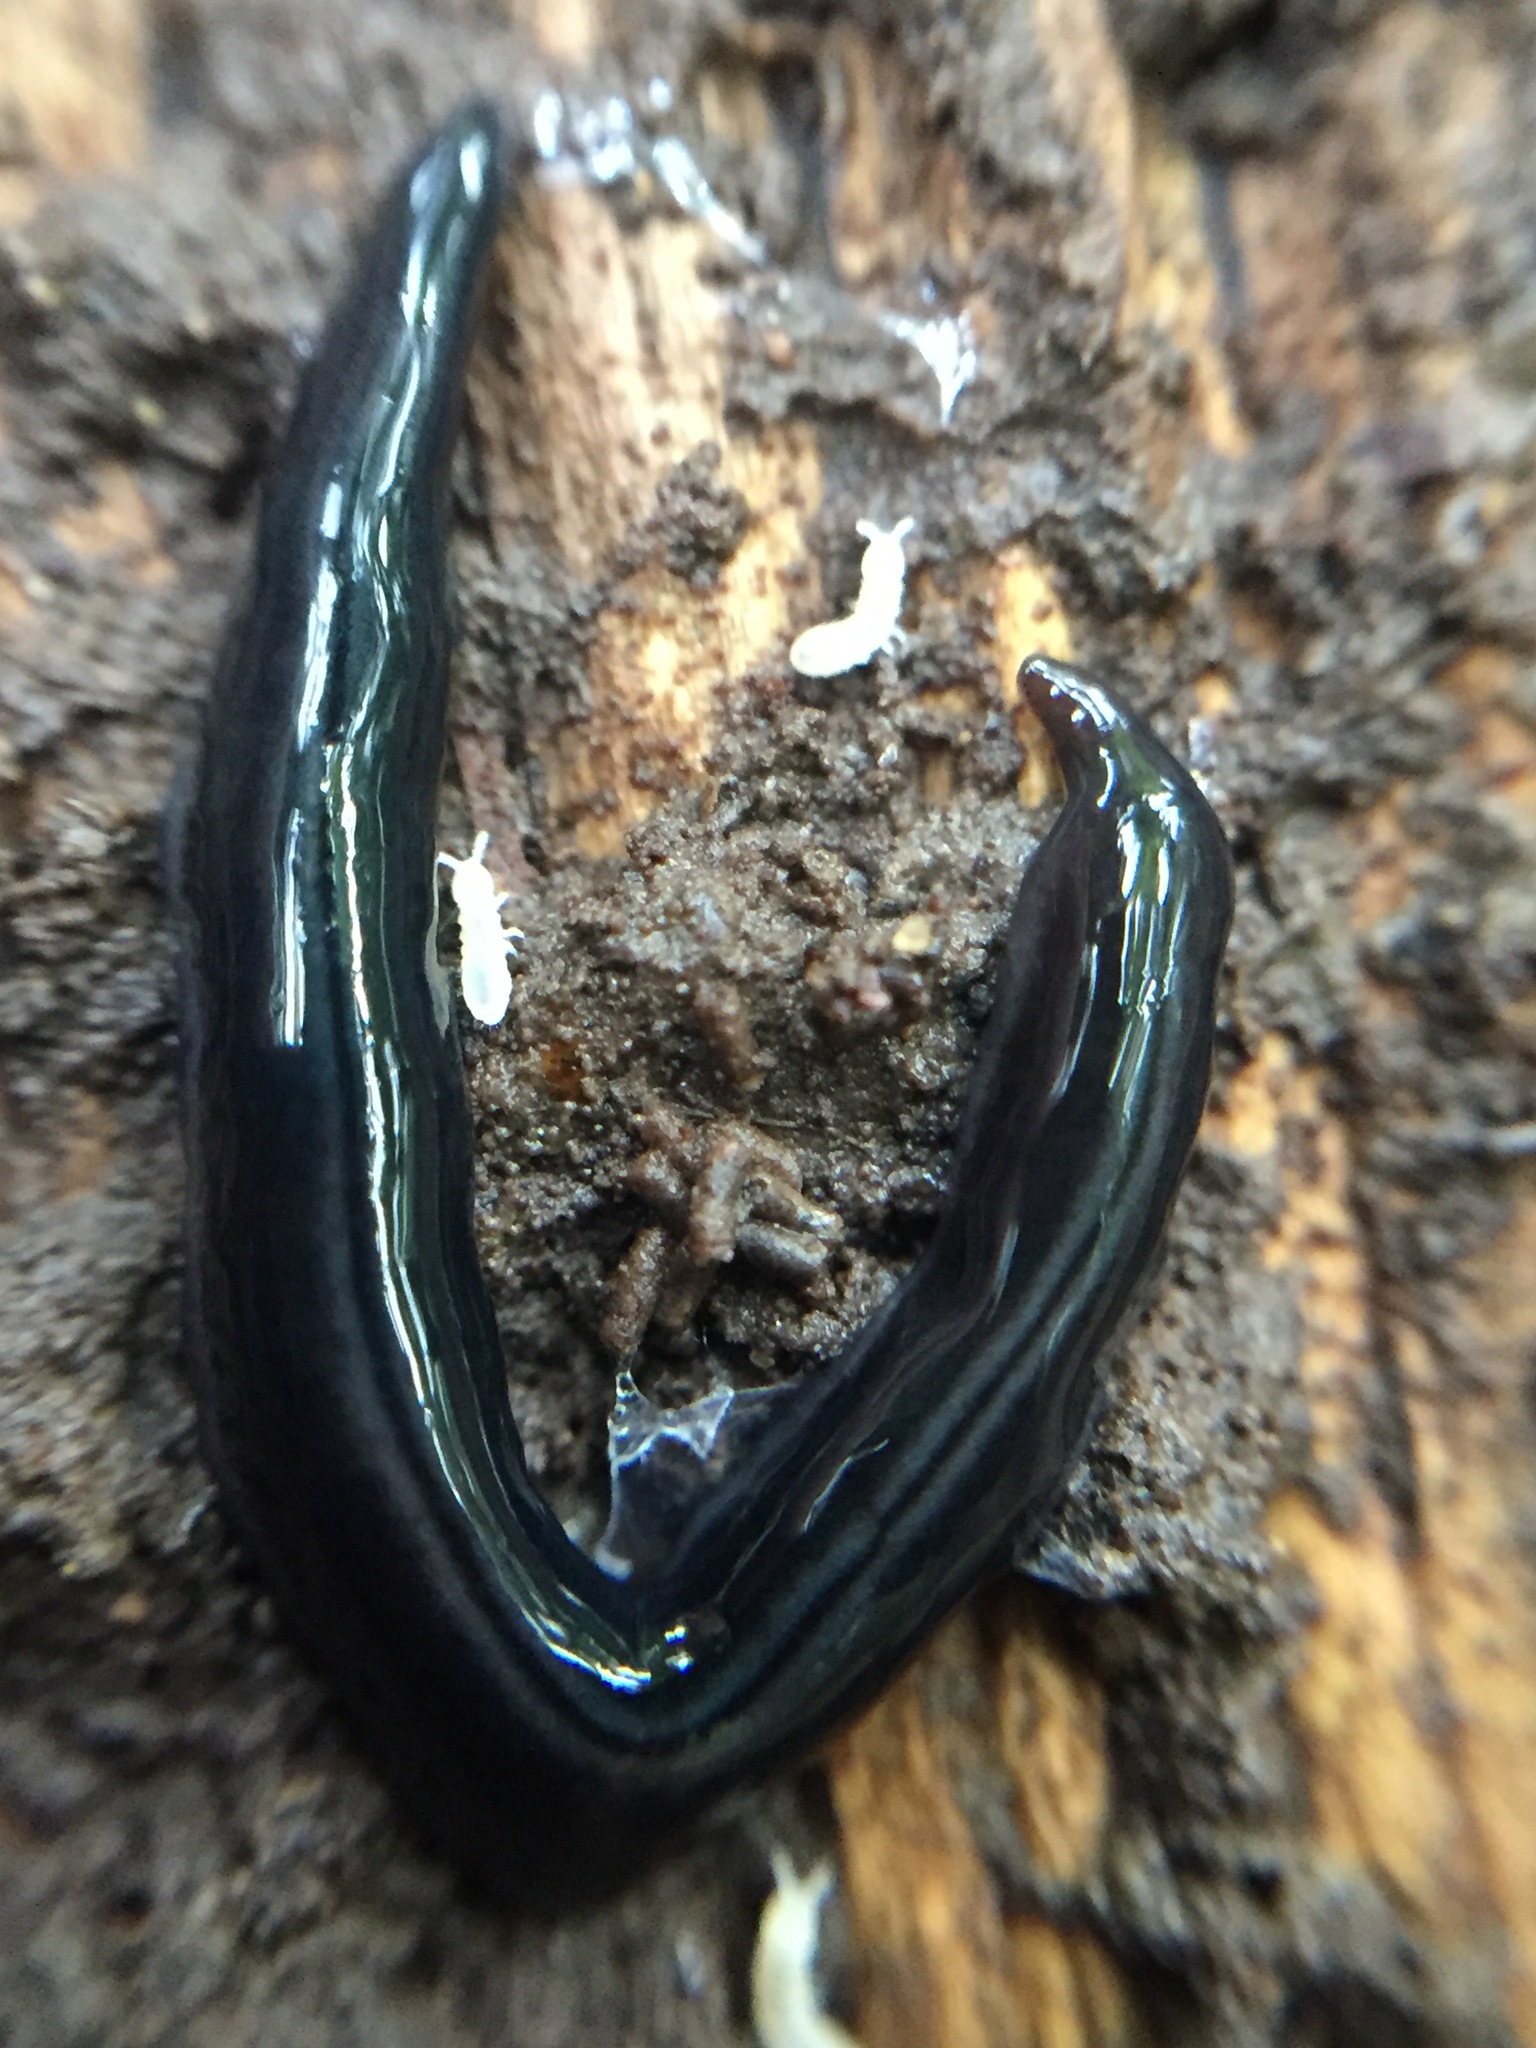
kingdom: Animalia
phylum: Platyhelminthes
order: Tricladida
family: Geoplanidae
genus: Parakontikia
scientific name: Parakontikia ventrolineata
